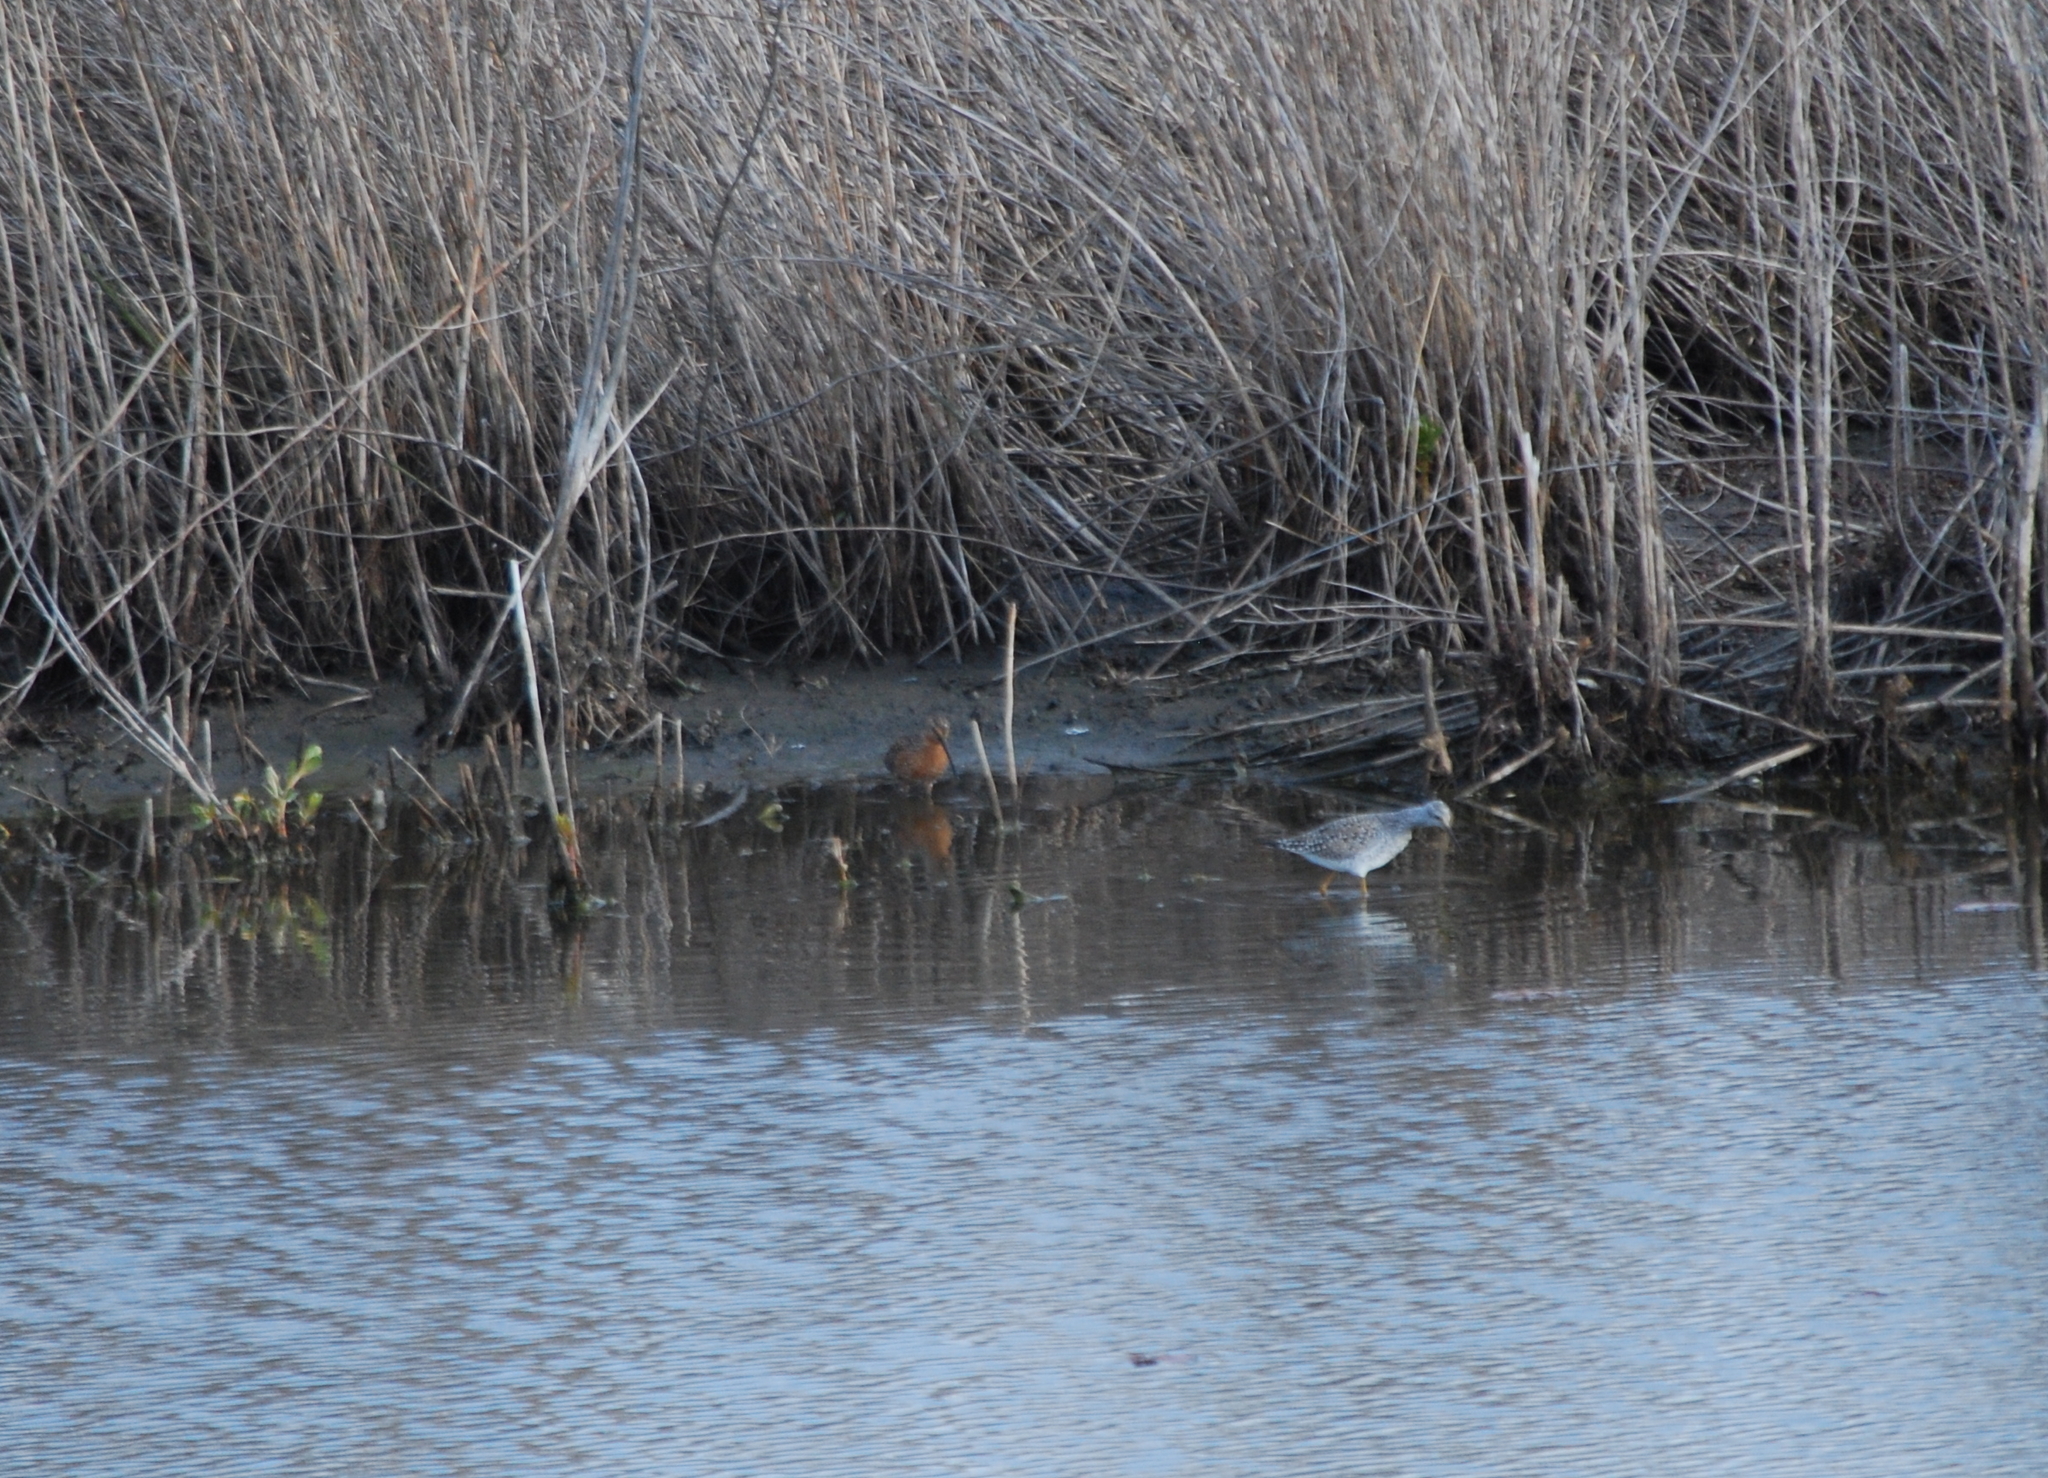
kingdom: Animalia
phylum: Chordata
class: Aves
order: Charadriiformes
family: Scolopacidae
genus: Tringa
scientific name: Tringa flavipes
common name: Lesser yellowlegs
